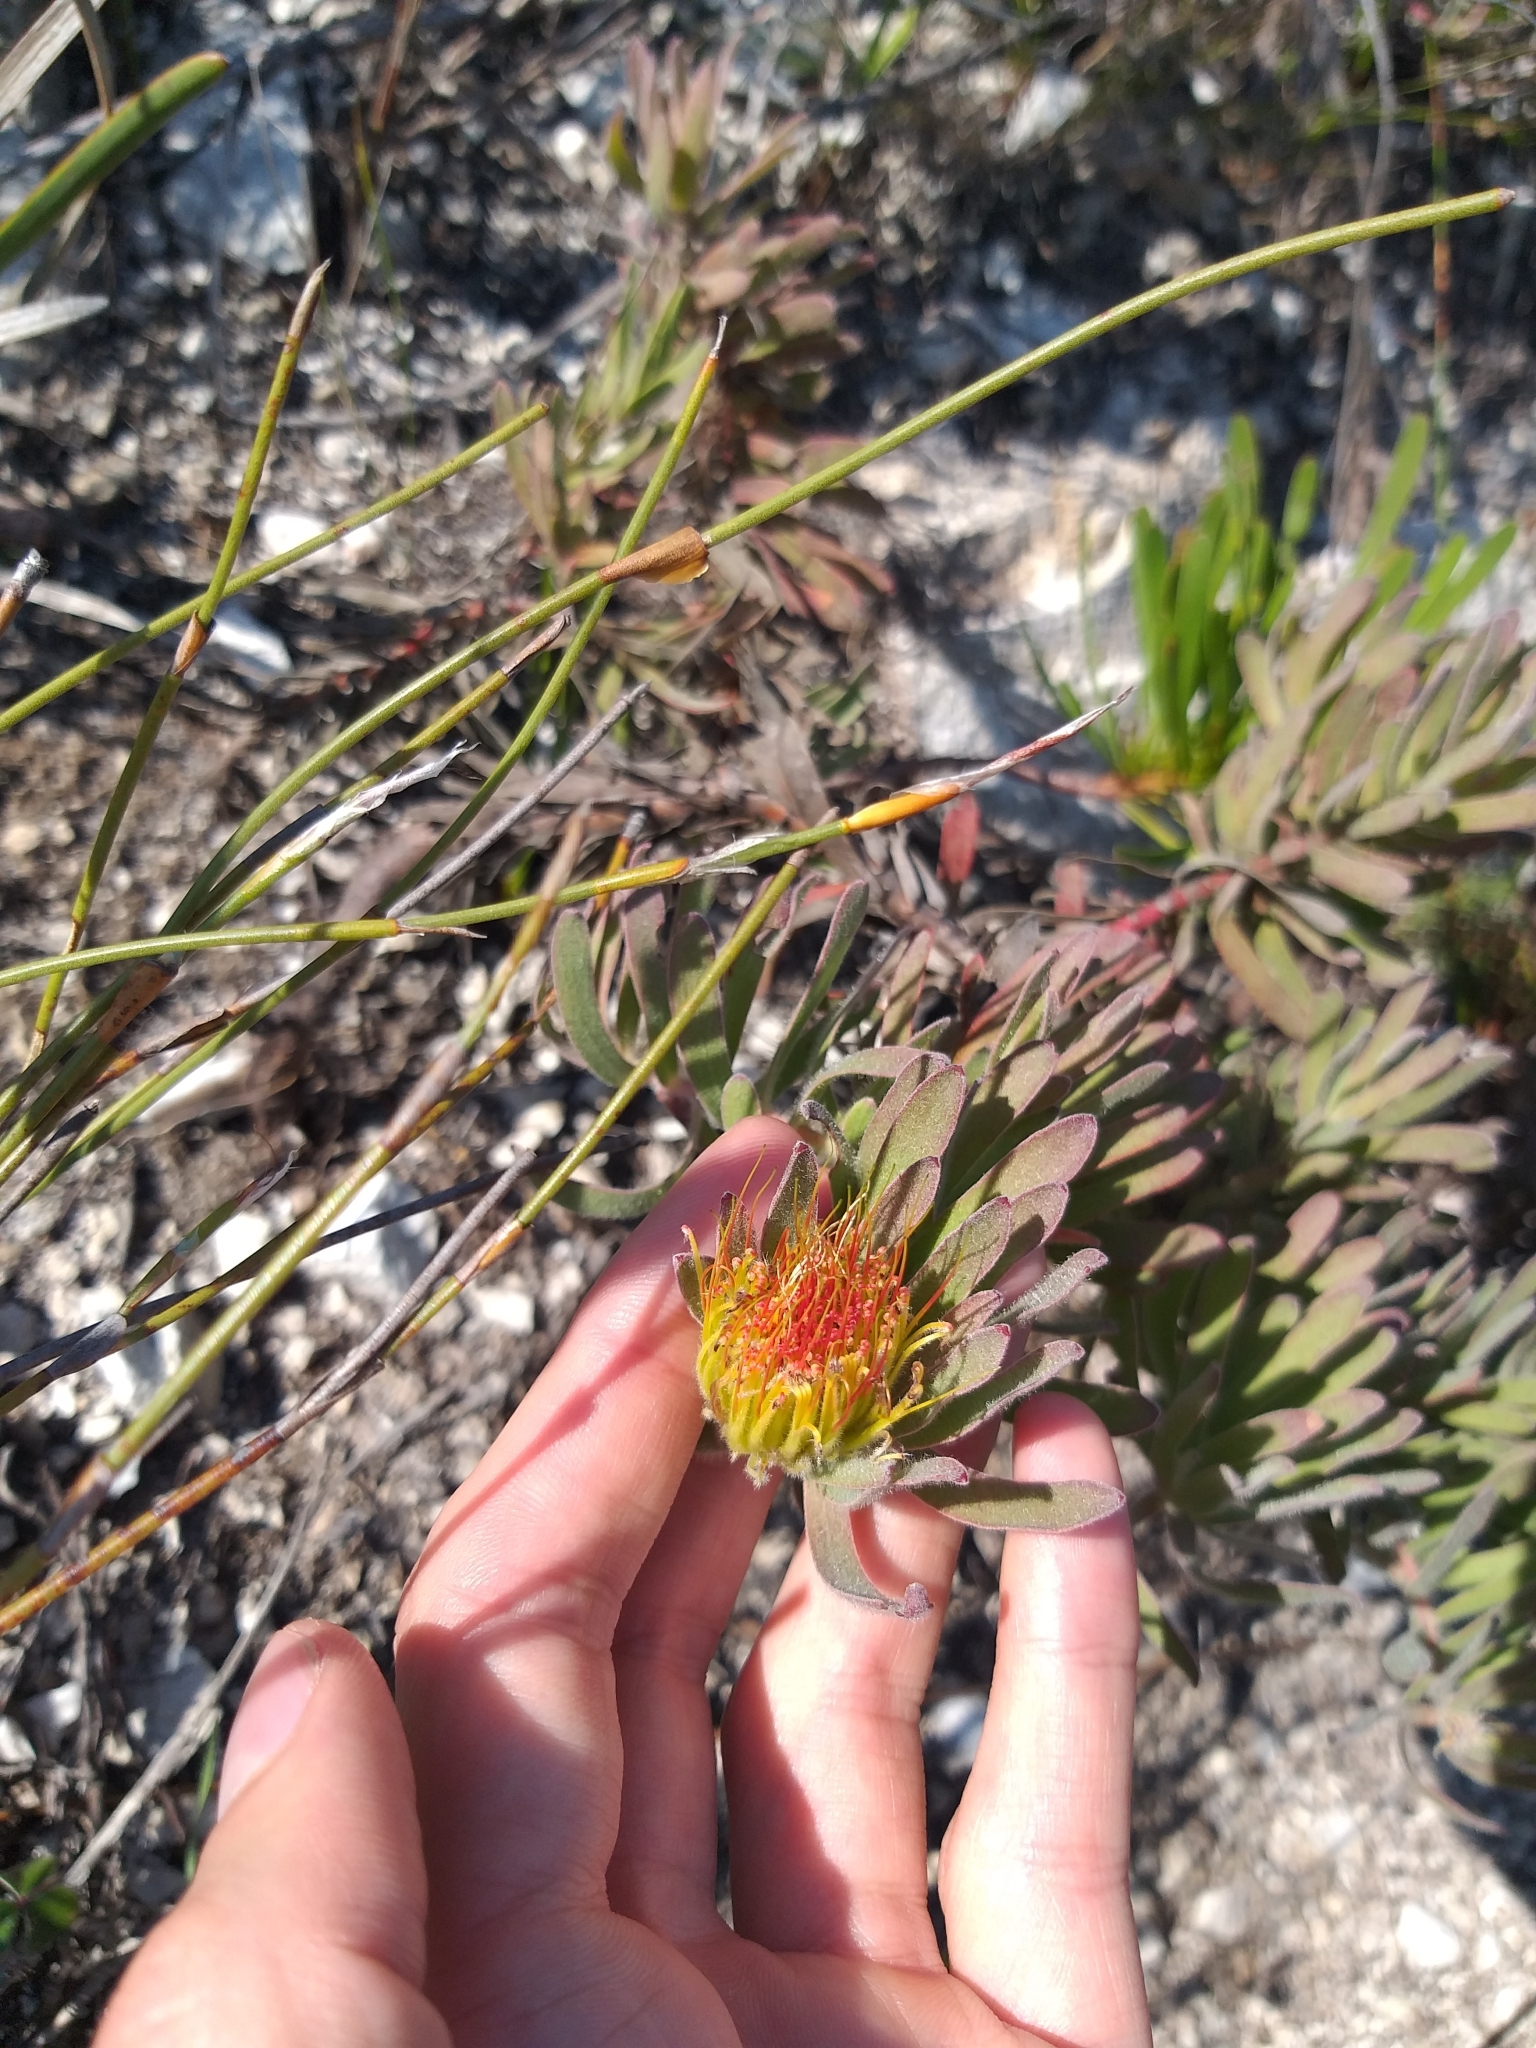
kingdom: Plantae
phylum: Tracheophyta
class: Magnoliopsida
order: Proteales
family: Proteaceae
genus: Leucospermum
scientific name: Leucospermum gracile
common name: Hermanus pincushion
